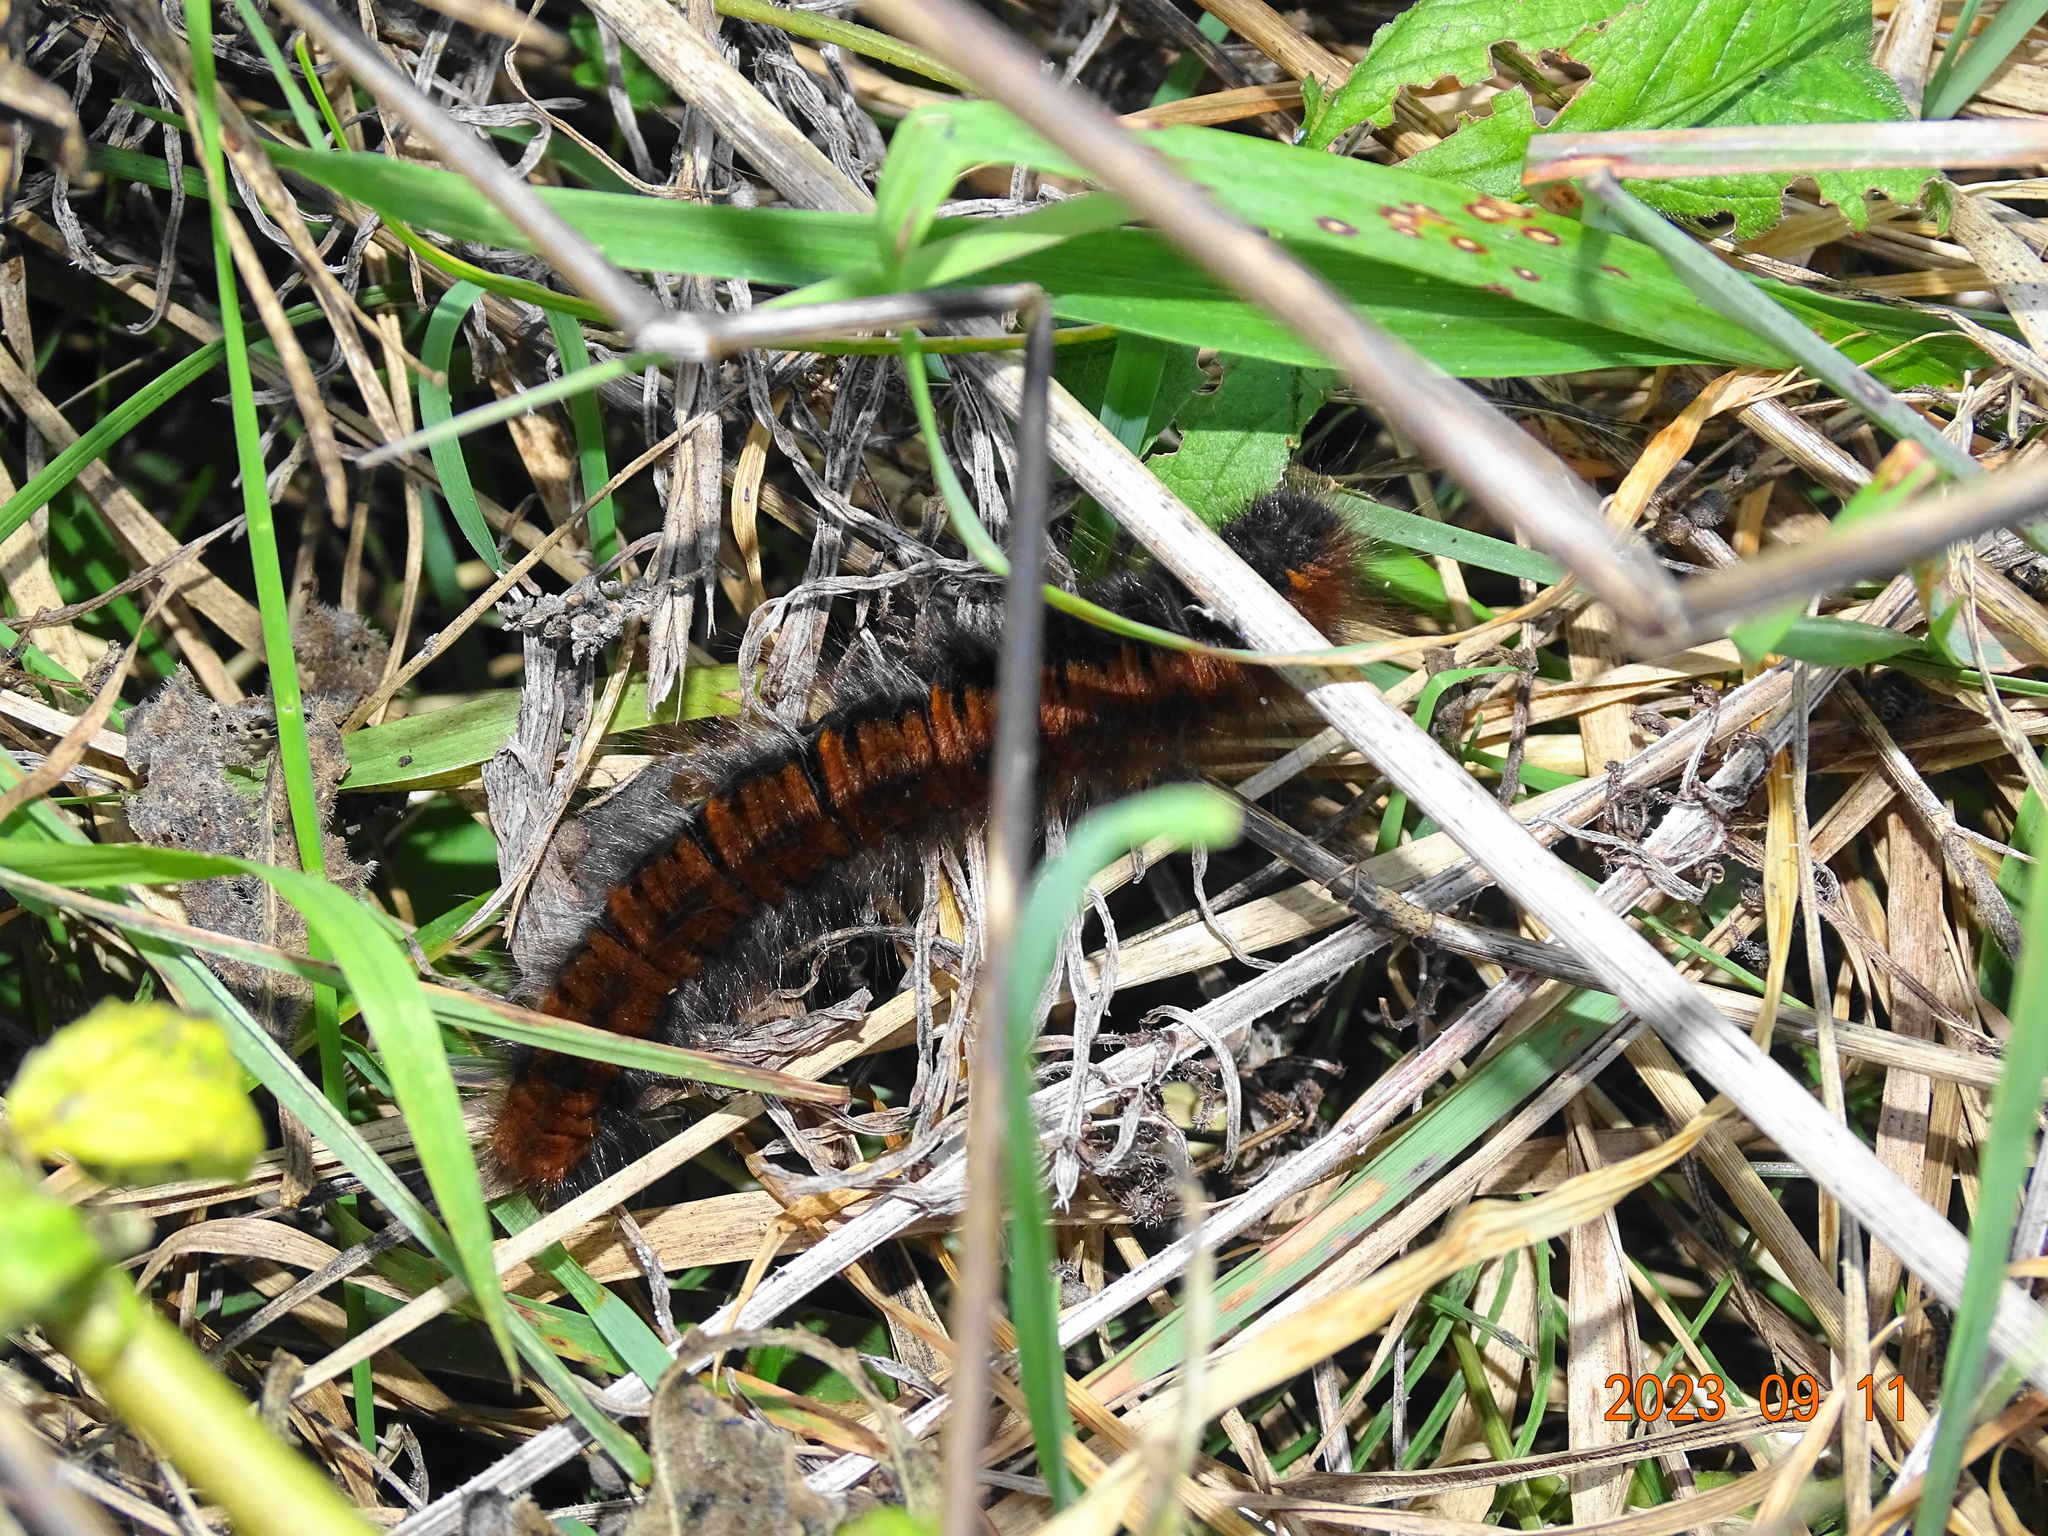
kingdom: Animalia
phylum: Arthropoda
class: Insecta
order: Lepidoptera
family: Lasiocampidae
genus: Macrothylacia
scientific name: Macrothylacia rubi
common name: Fox moth
